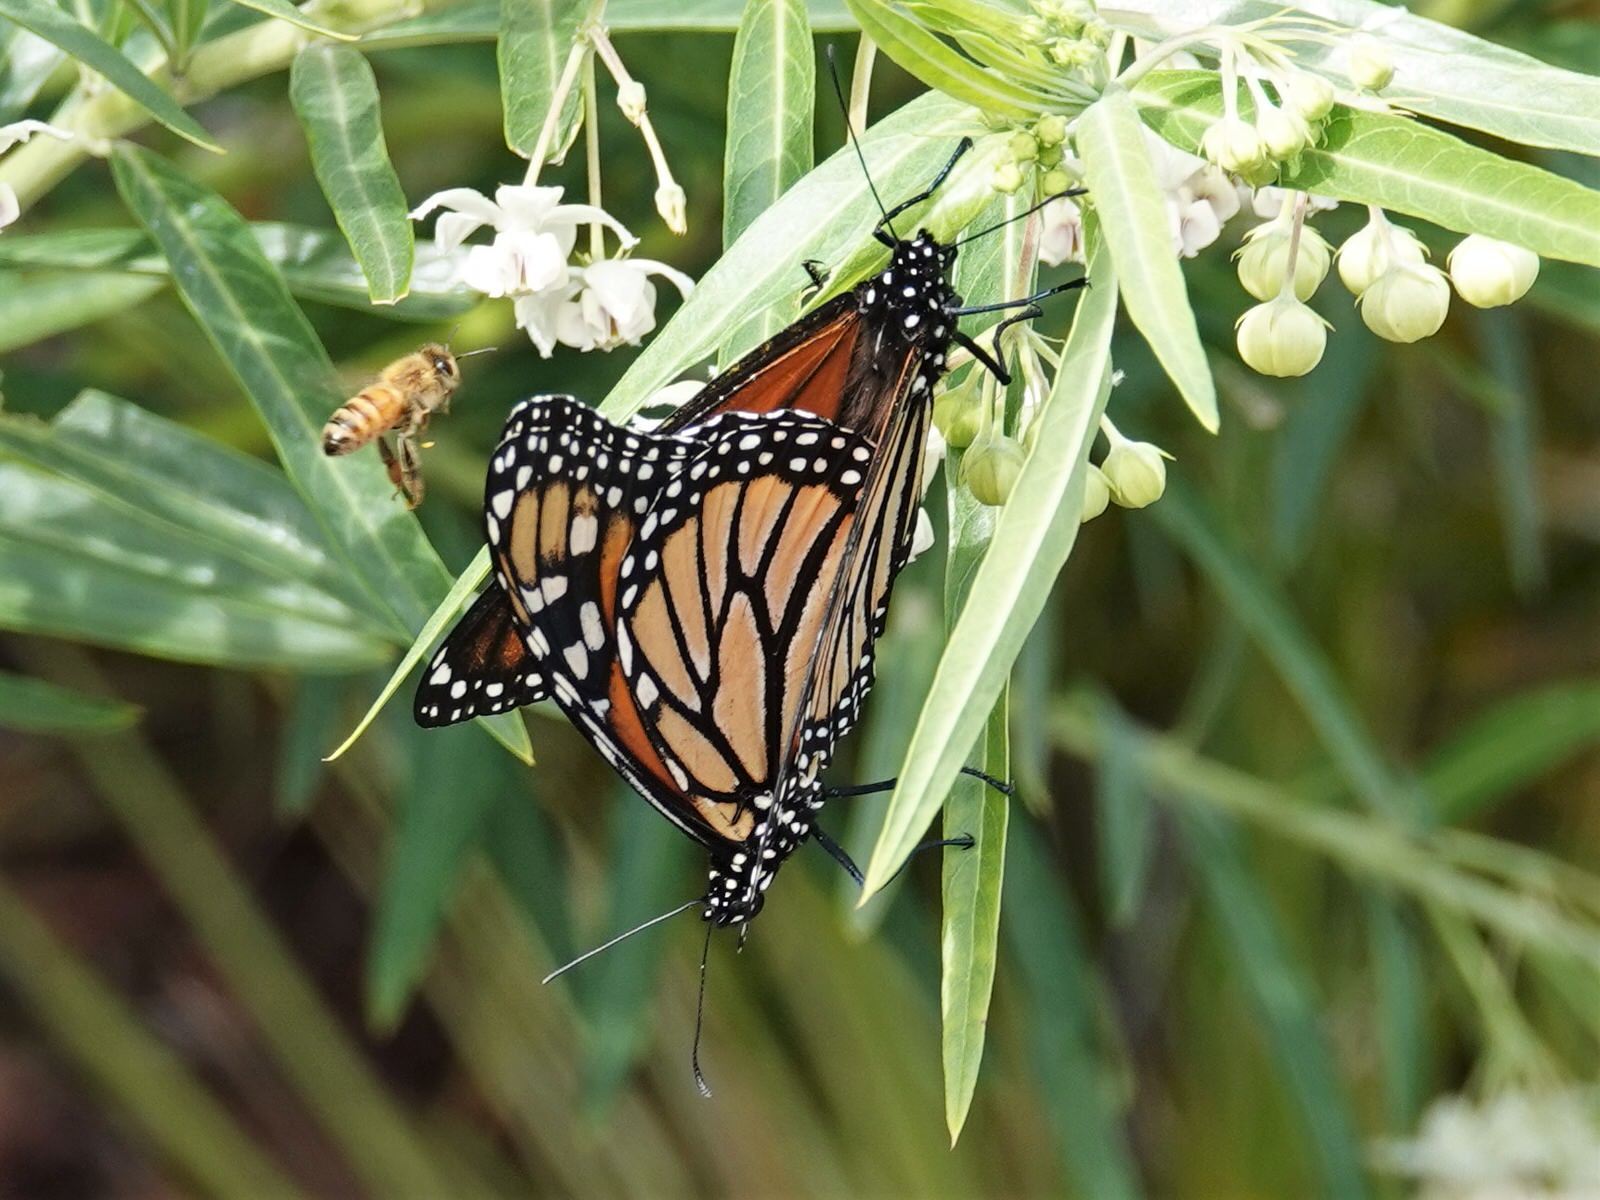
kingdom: Animalia
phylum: Arthropoda
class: Insecta
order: Lepidoptera
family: Nymphalidae
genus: Danaus
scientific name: Danaus plexippus
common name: Monarch
